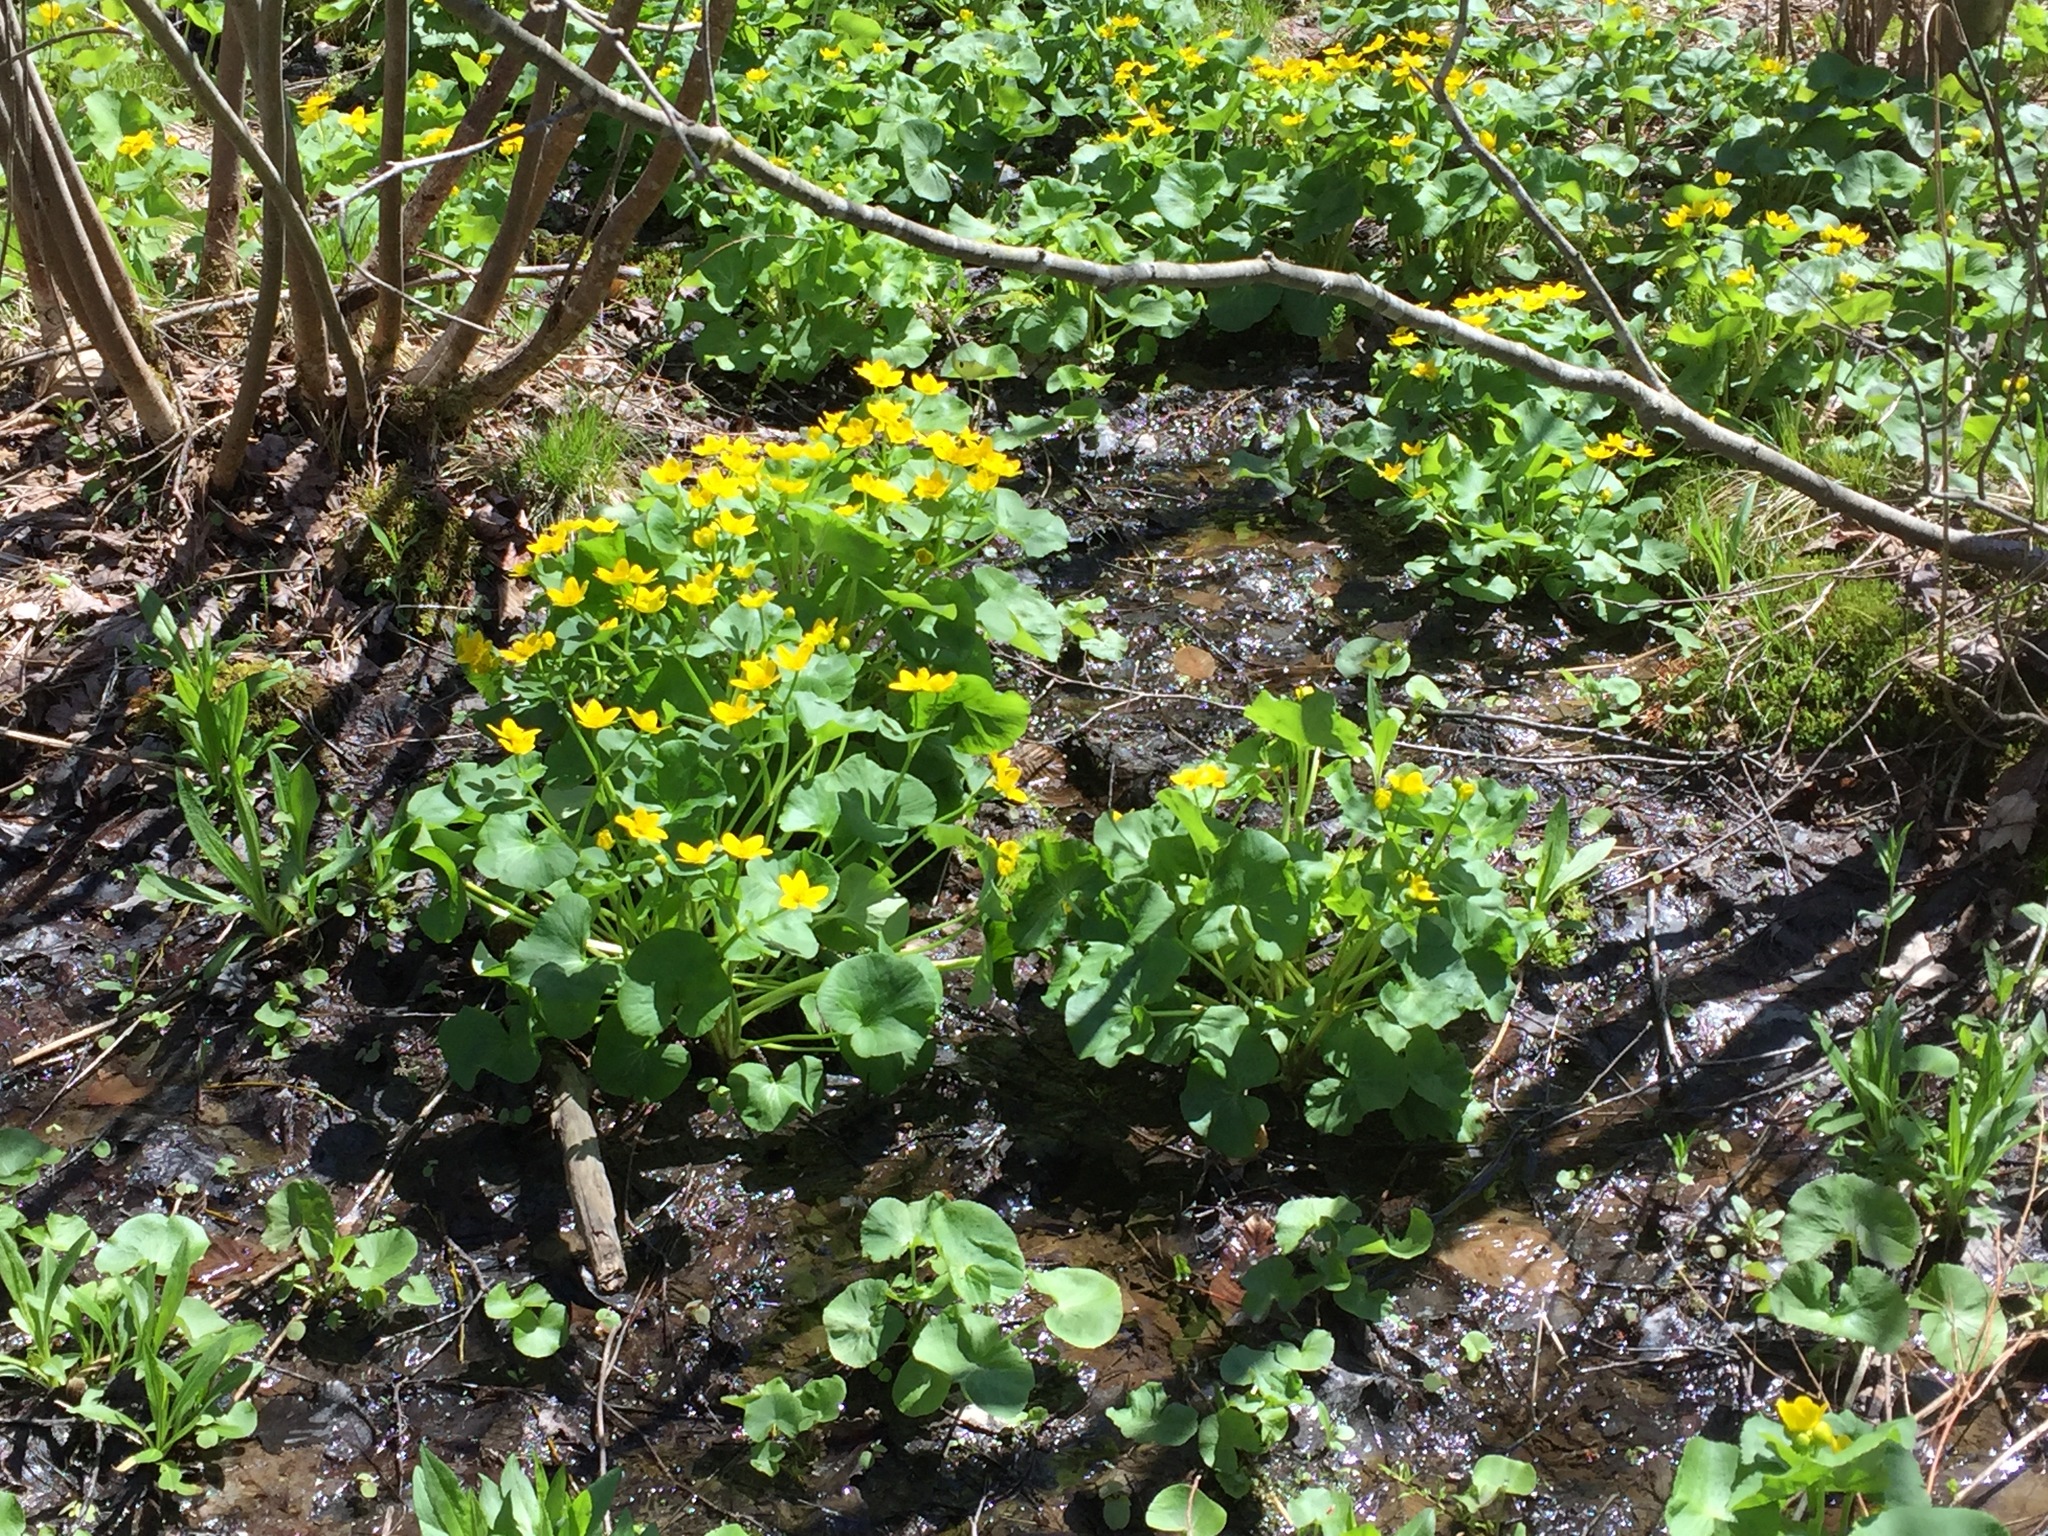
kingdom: Plantae
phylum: Tracheophyta
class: Magnoliopsida
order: Ranunculales
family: Ranunculaceae
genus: Caltha
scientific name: Caltha palustris
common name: Marsh marigold
